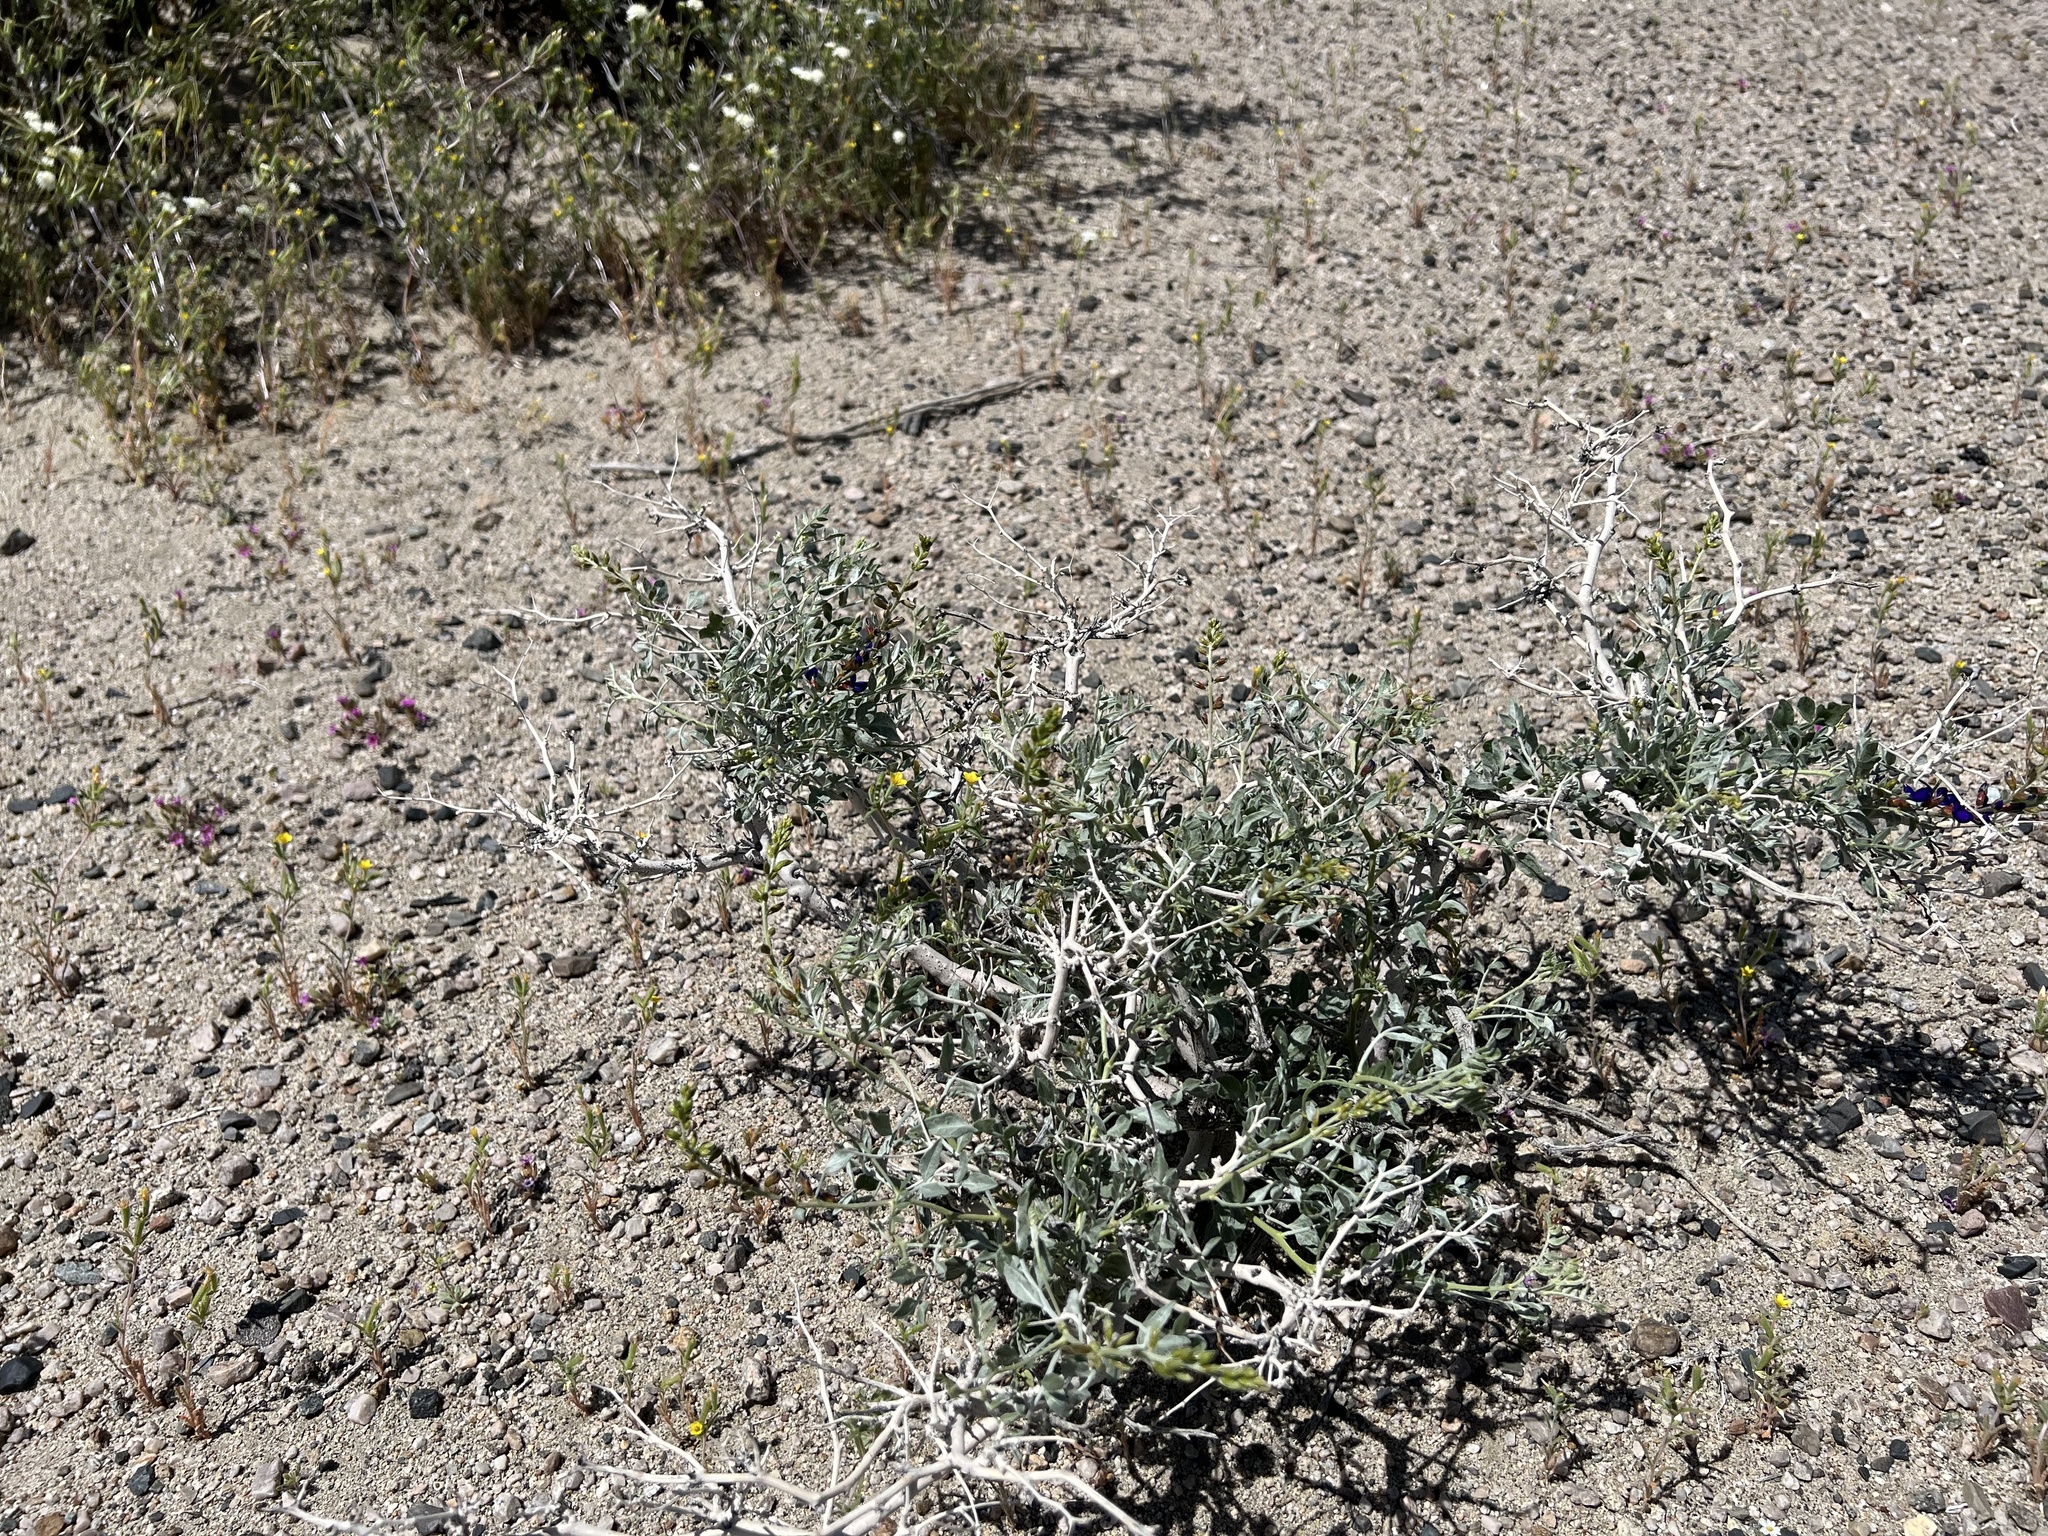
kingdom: Plantae
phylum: Tracheophyta
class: Magnoliopsida
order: Fabales
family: Fabaceae
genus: Psorothamnus
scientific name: Psorothamnus arborescens
